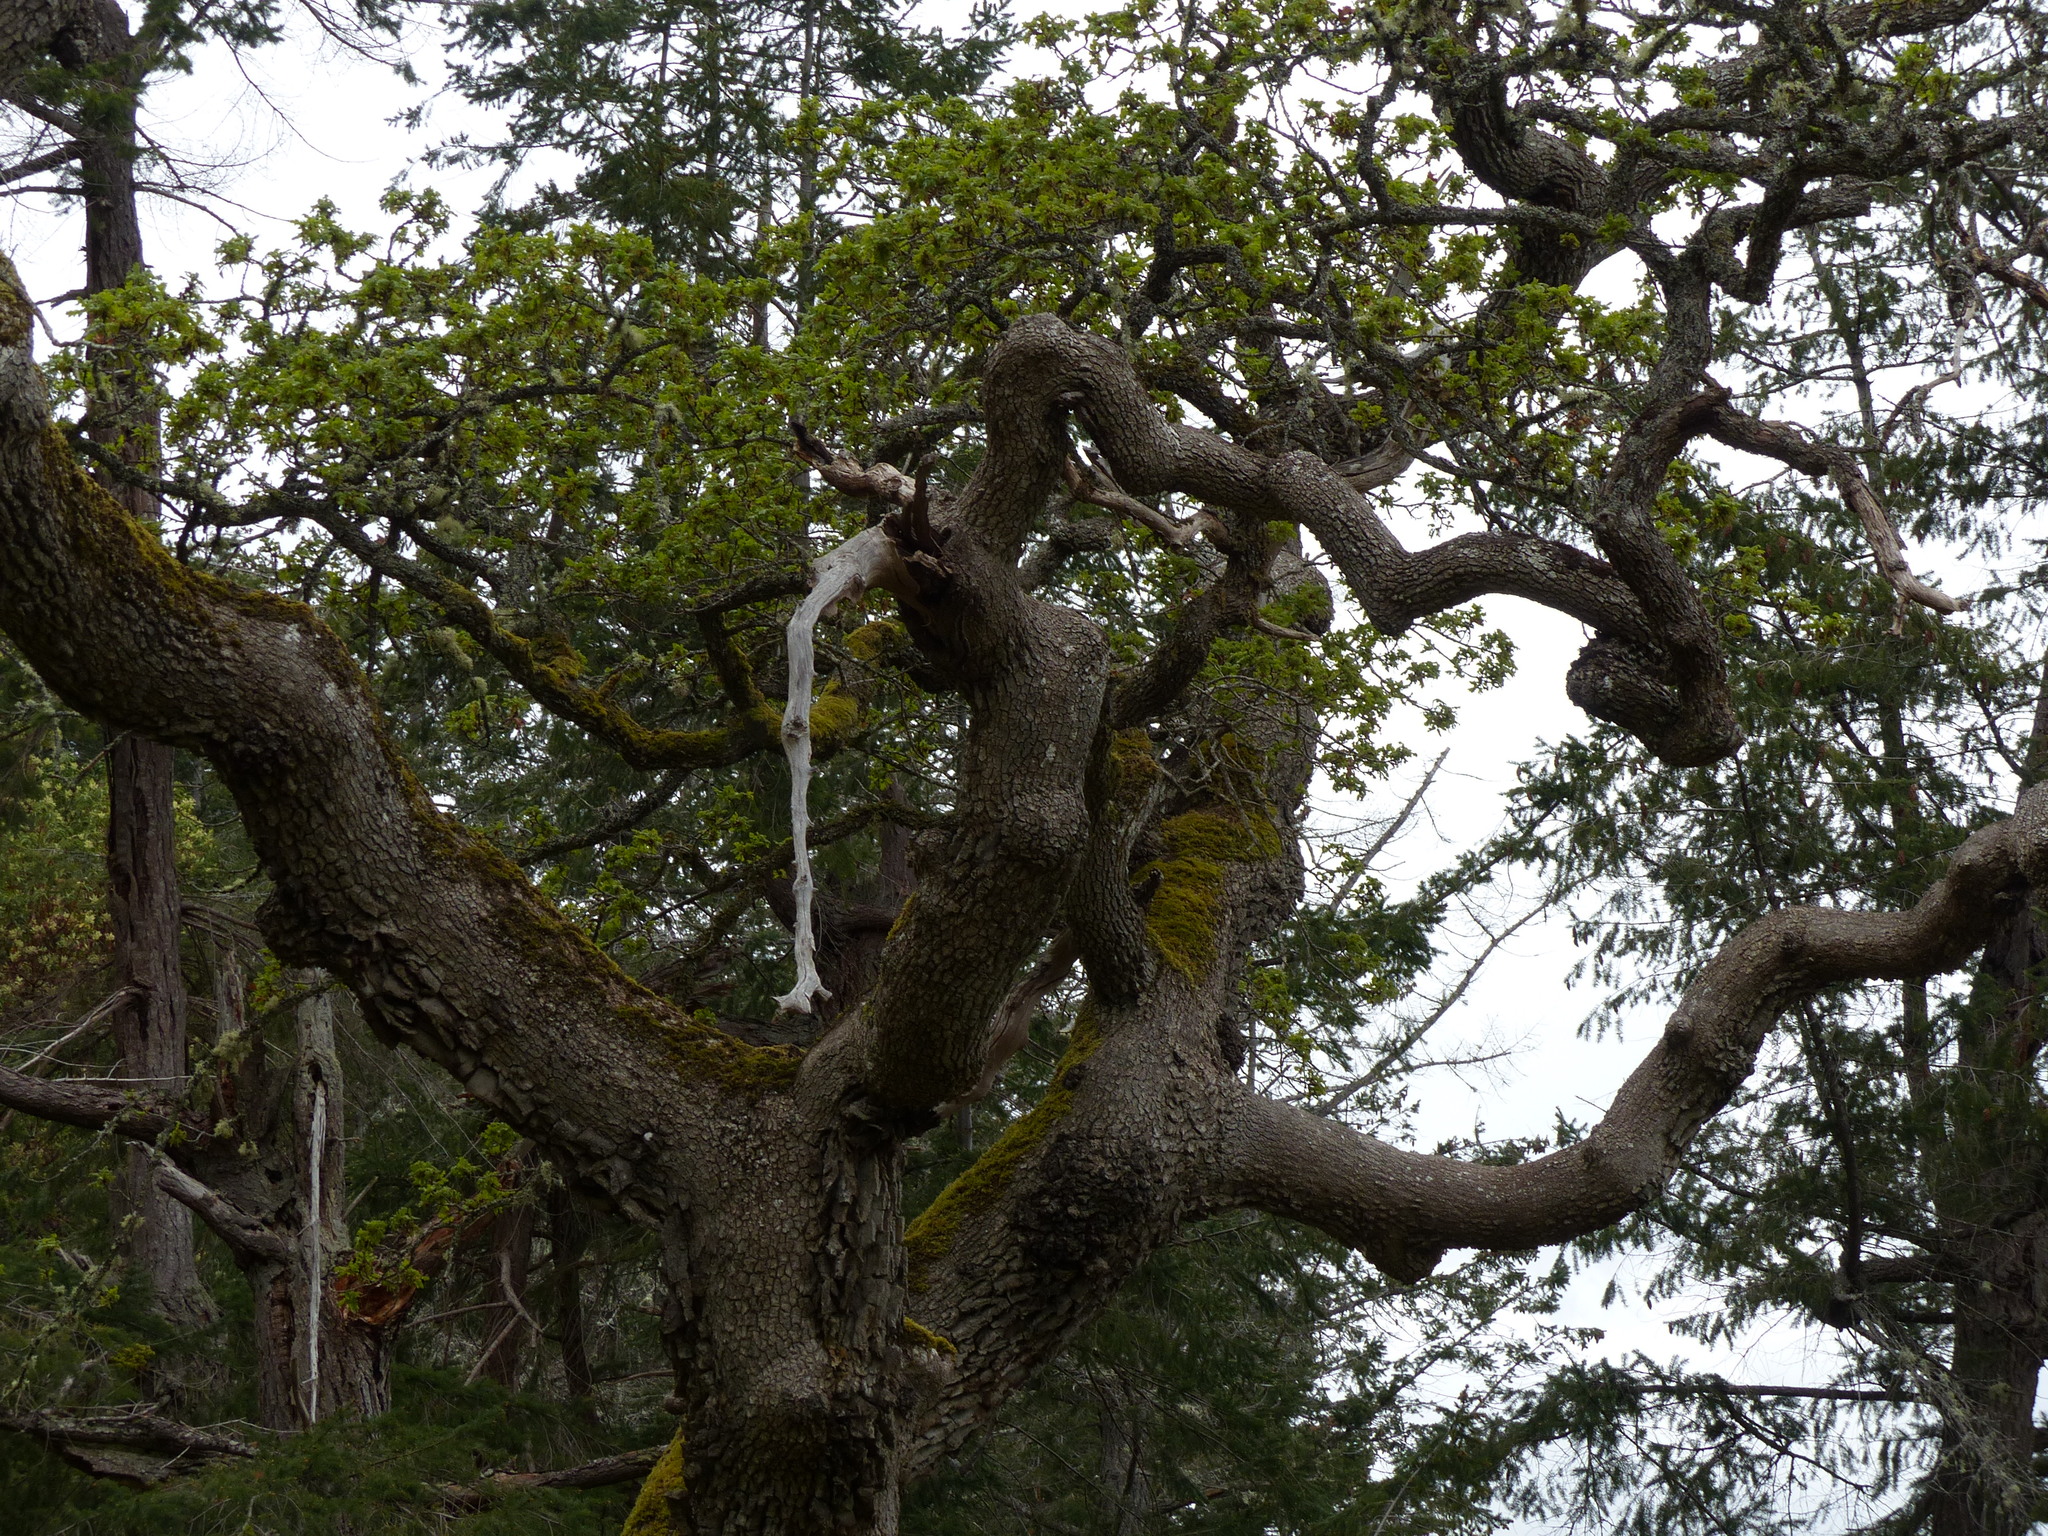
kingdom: Plantae
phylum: Tracheophyta
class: Magnoliopsida
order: Fagales
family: Fagaceae
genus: Quercus
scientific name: Quercus garryana
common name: Garry oak
